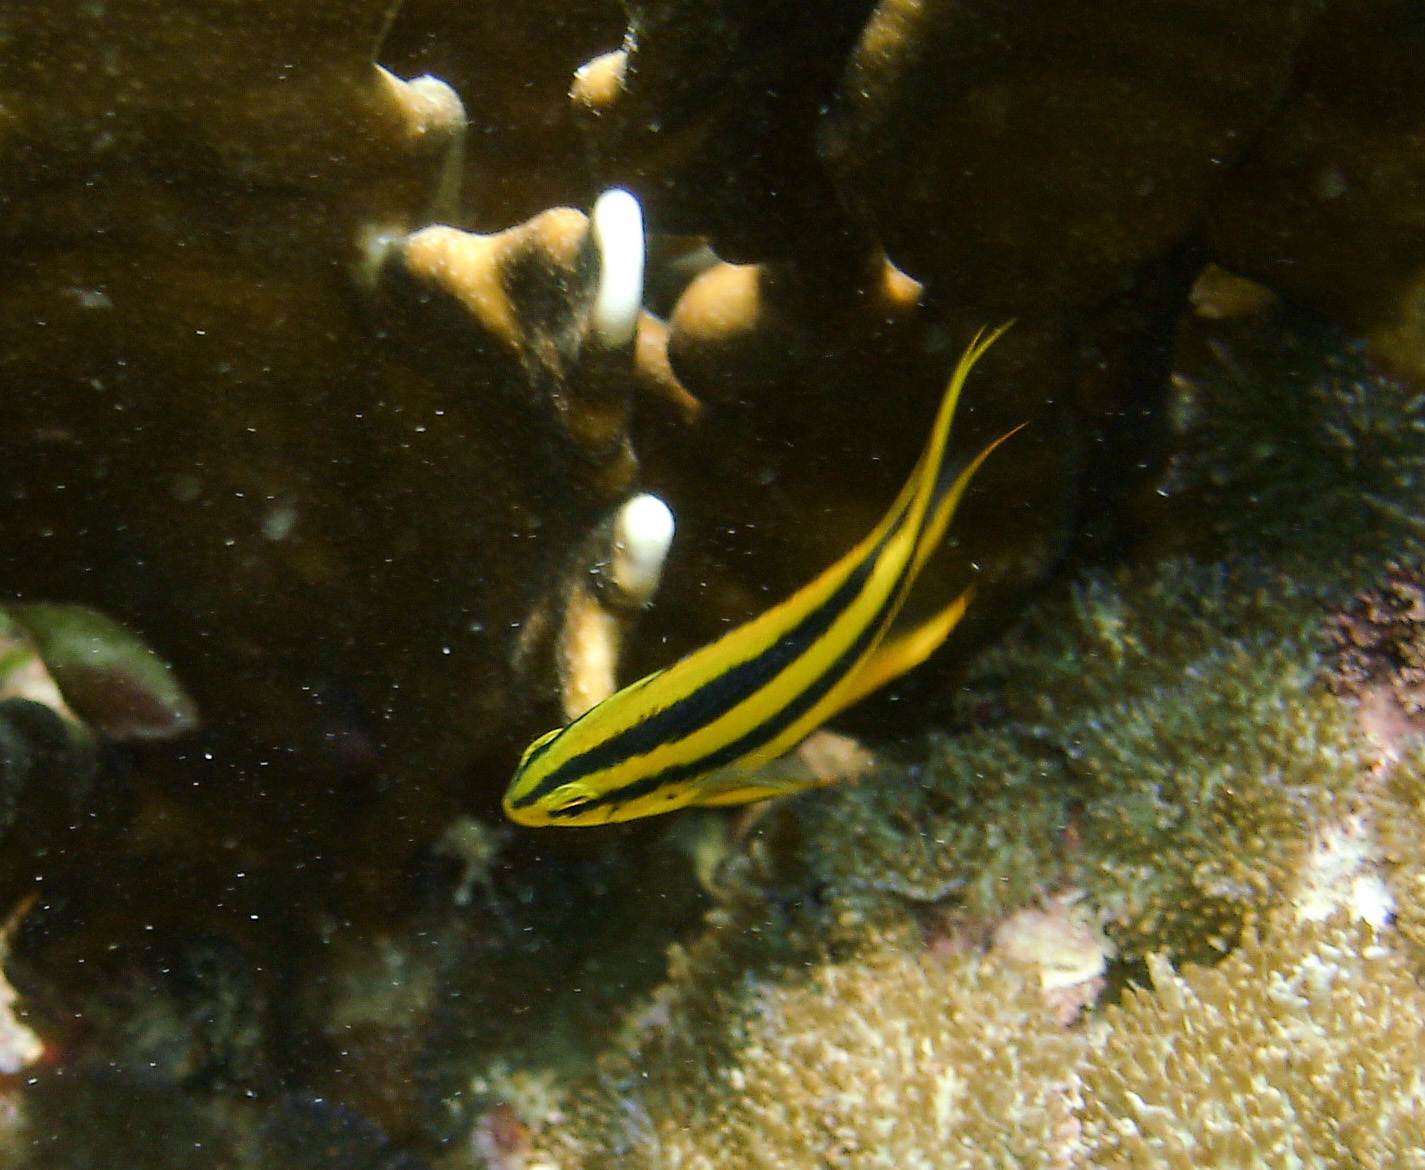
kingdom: Animalia
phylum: Chordata
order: Perciformes
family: Pomacentridae
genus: Neoglyphidodon
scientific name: Neoglyphidodon nigroris
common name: Behn's damsel
